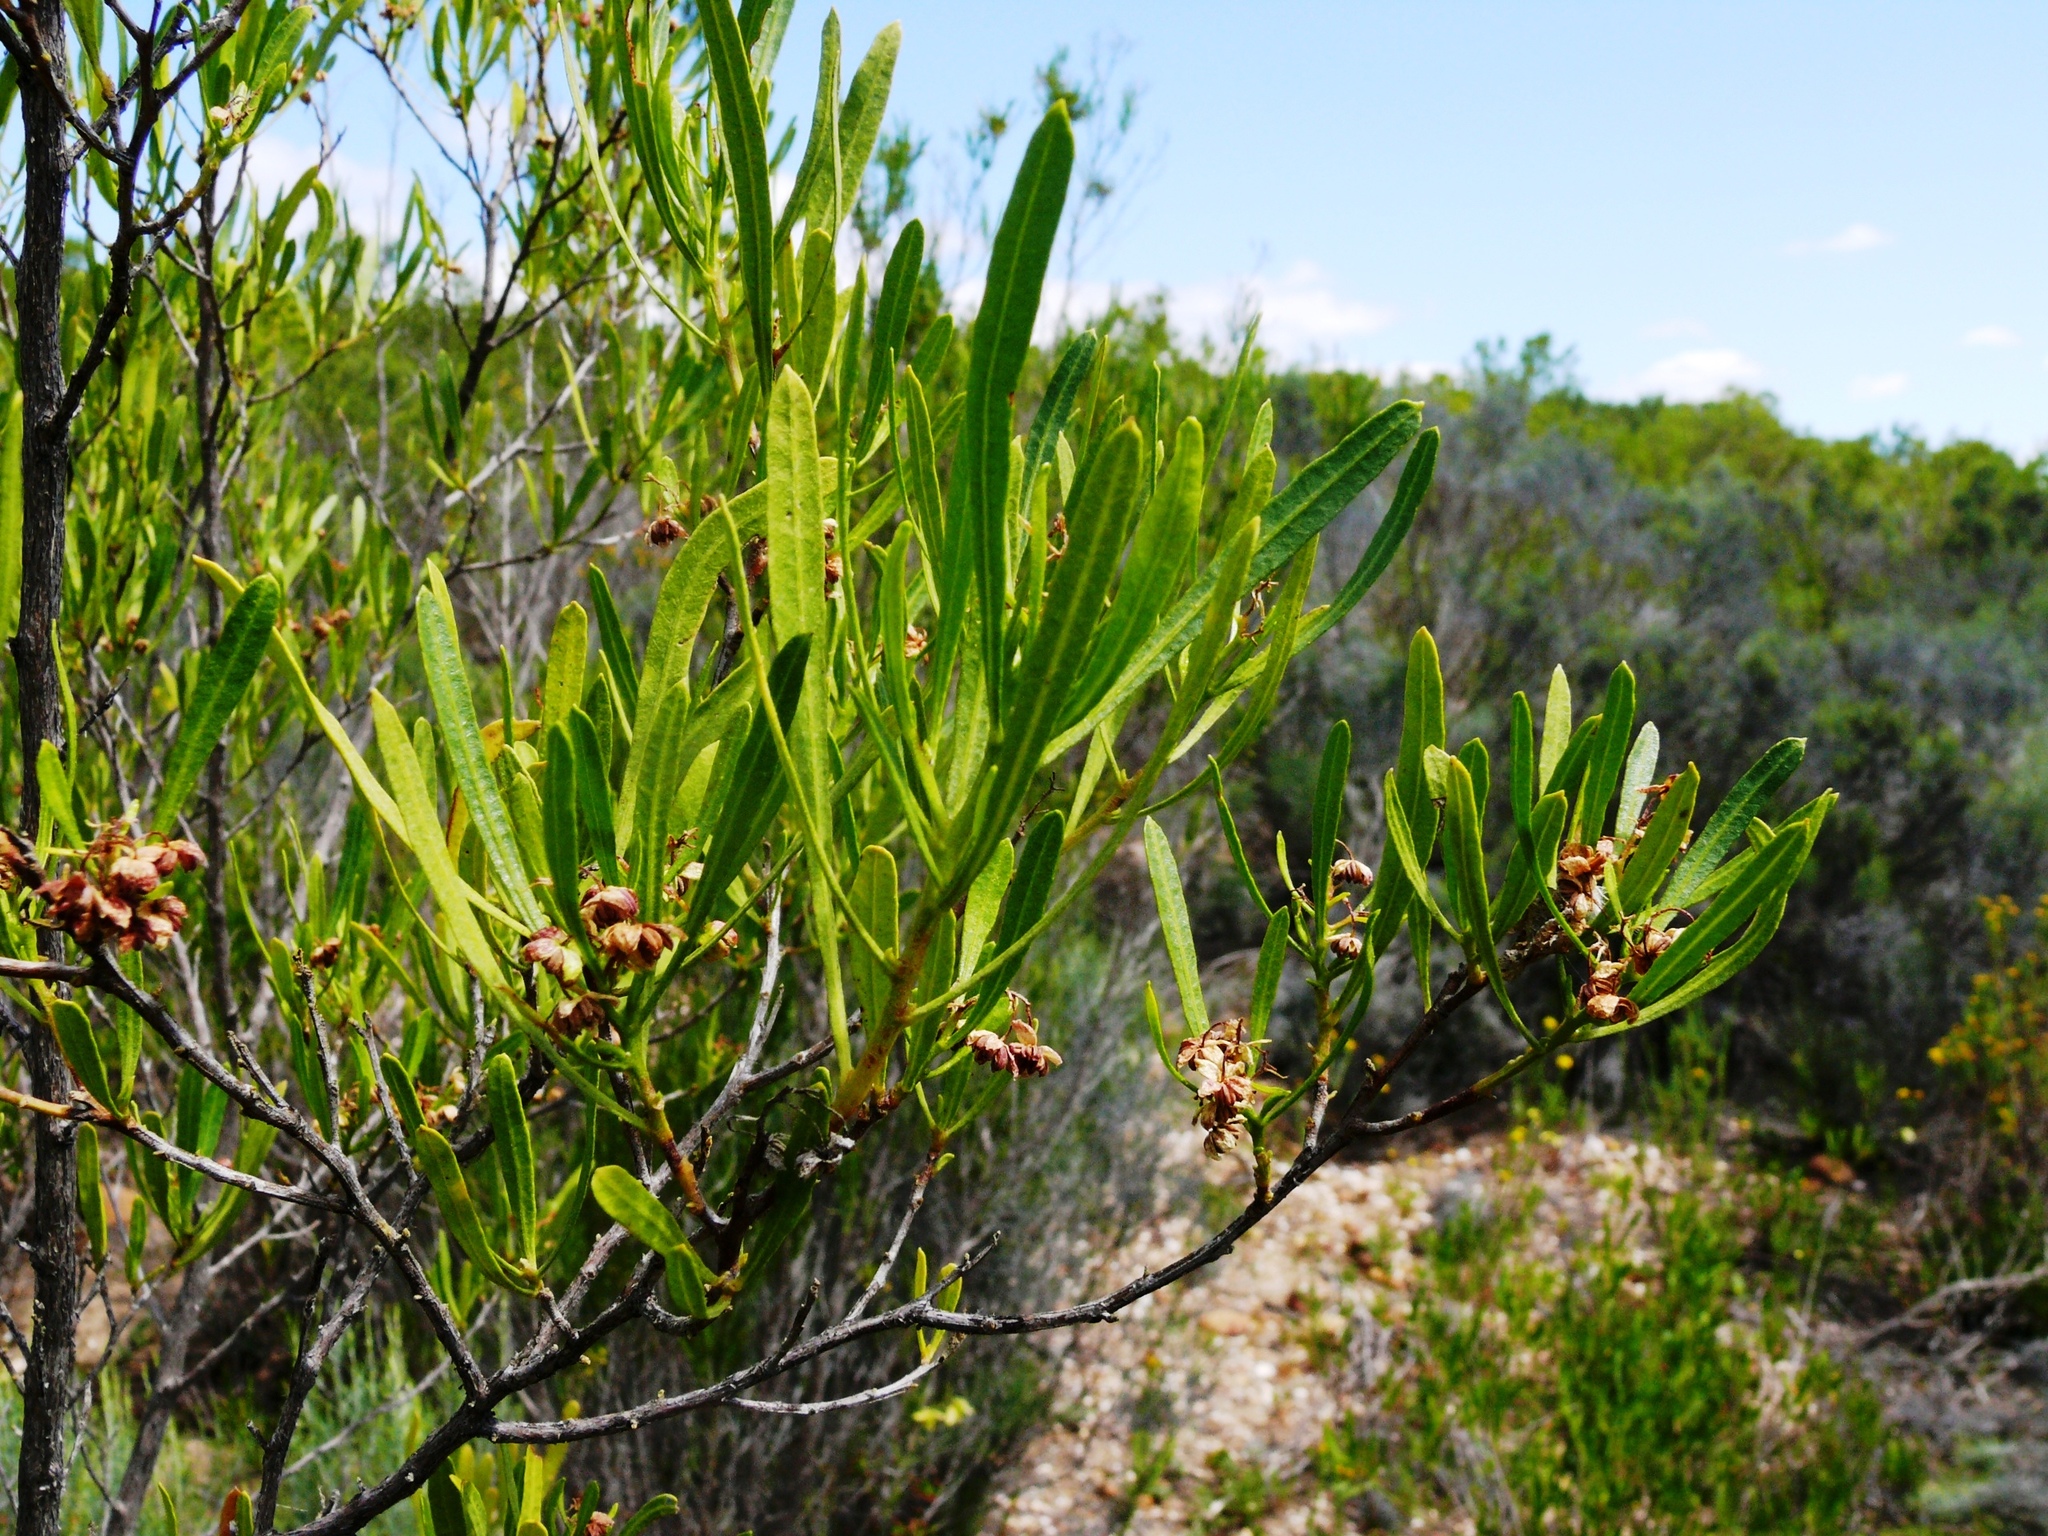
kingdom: Plantae
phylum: Tracheophyta
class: Magnoliopsida
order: Sapindales
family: Sapindaceae
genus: Dodonaea
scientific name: Dodonaea viscosa
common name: Hopbush
